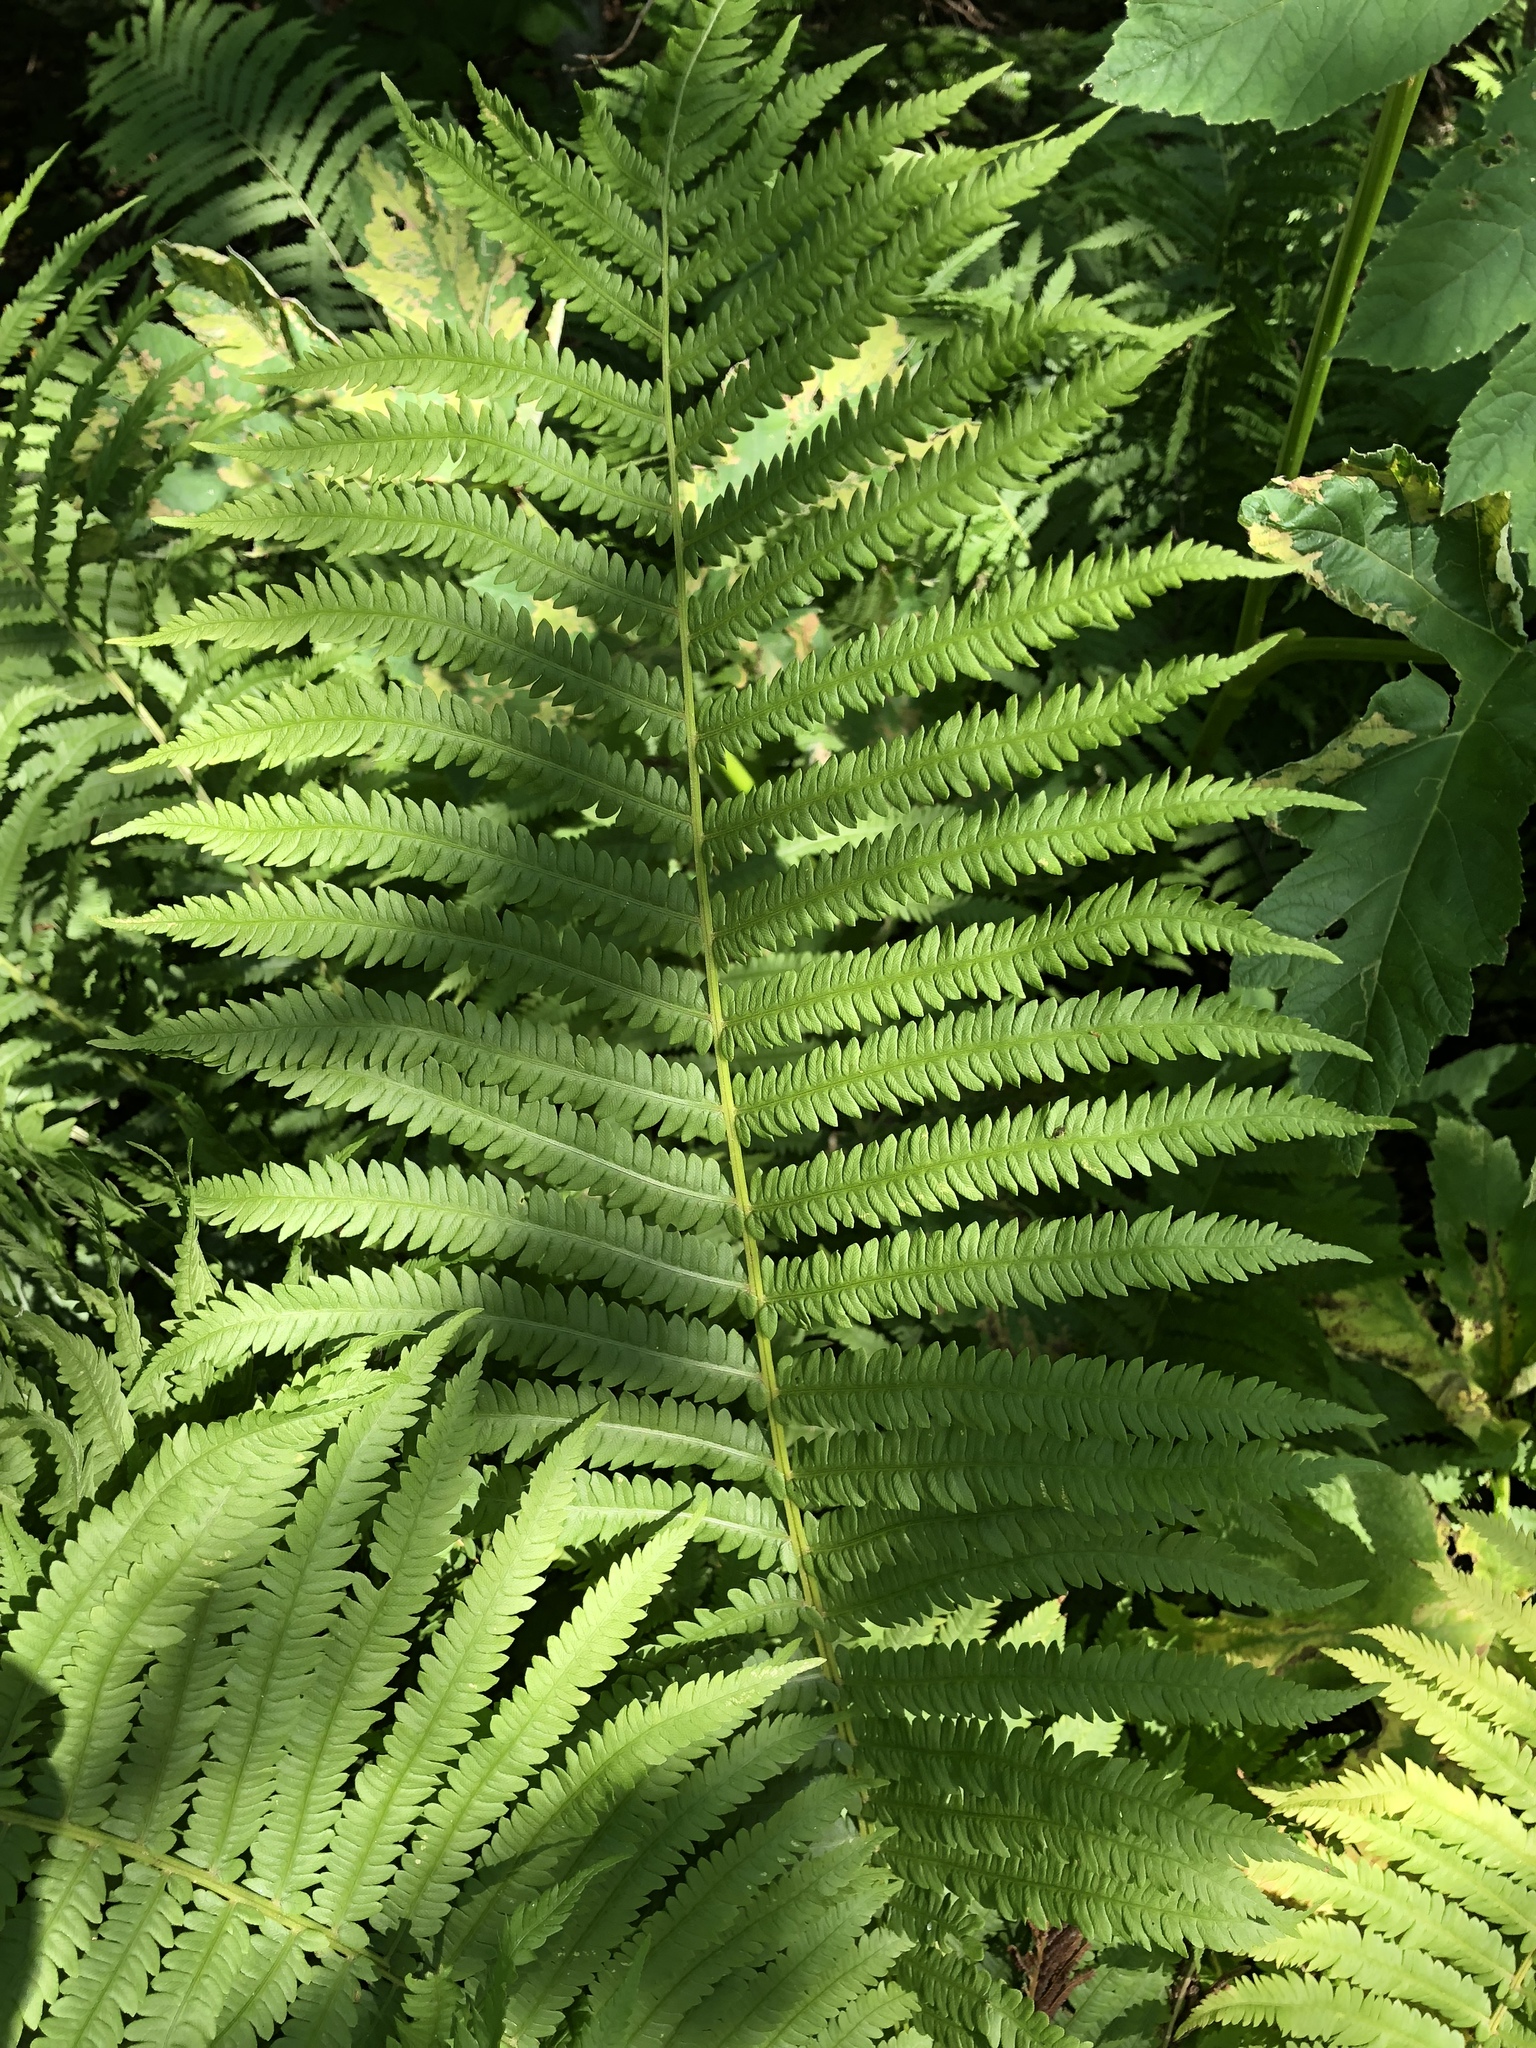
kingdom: Plantae
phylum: Tracheophyta
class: Polypodiopsida
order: Polypodiales
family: Onocleaceae
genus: Matteuccia
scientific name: Matteuccia struthiopteris
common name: Ostrich fern
